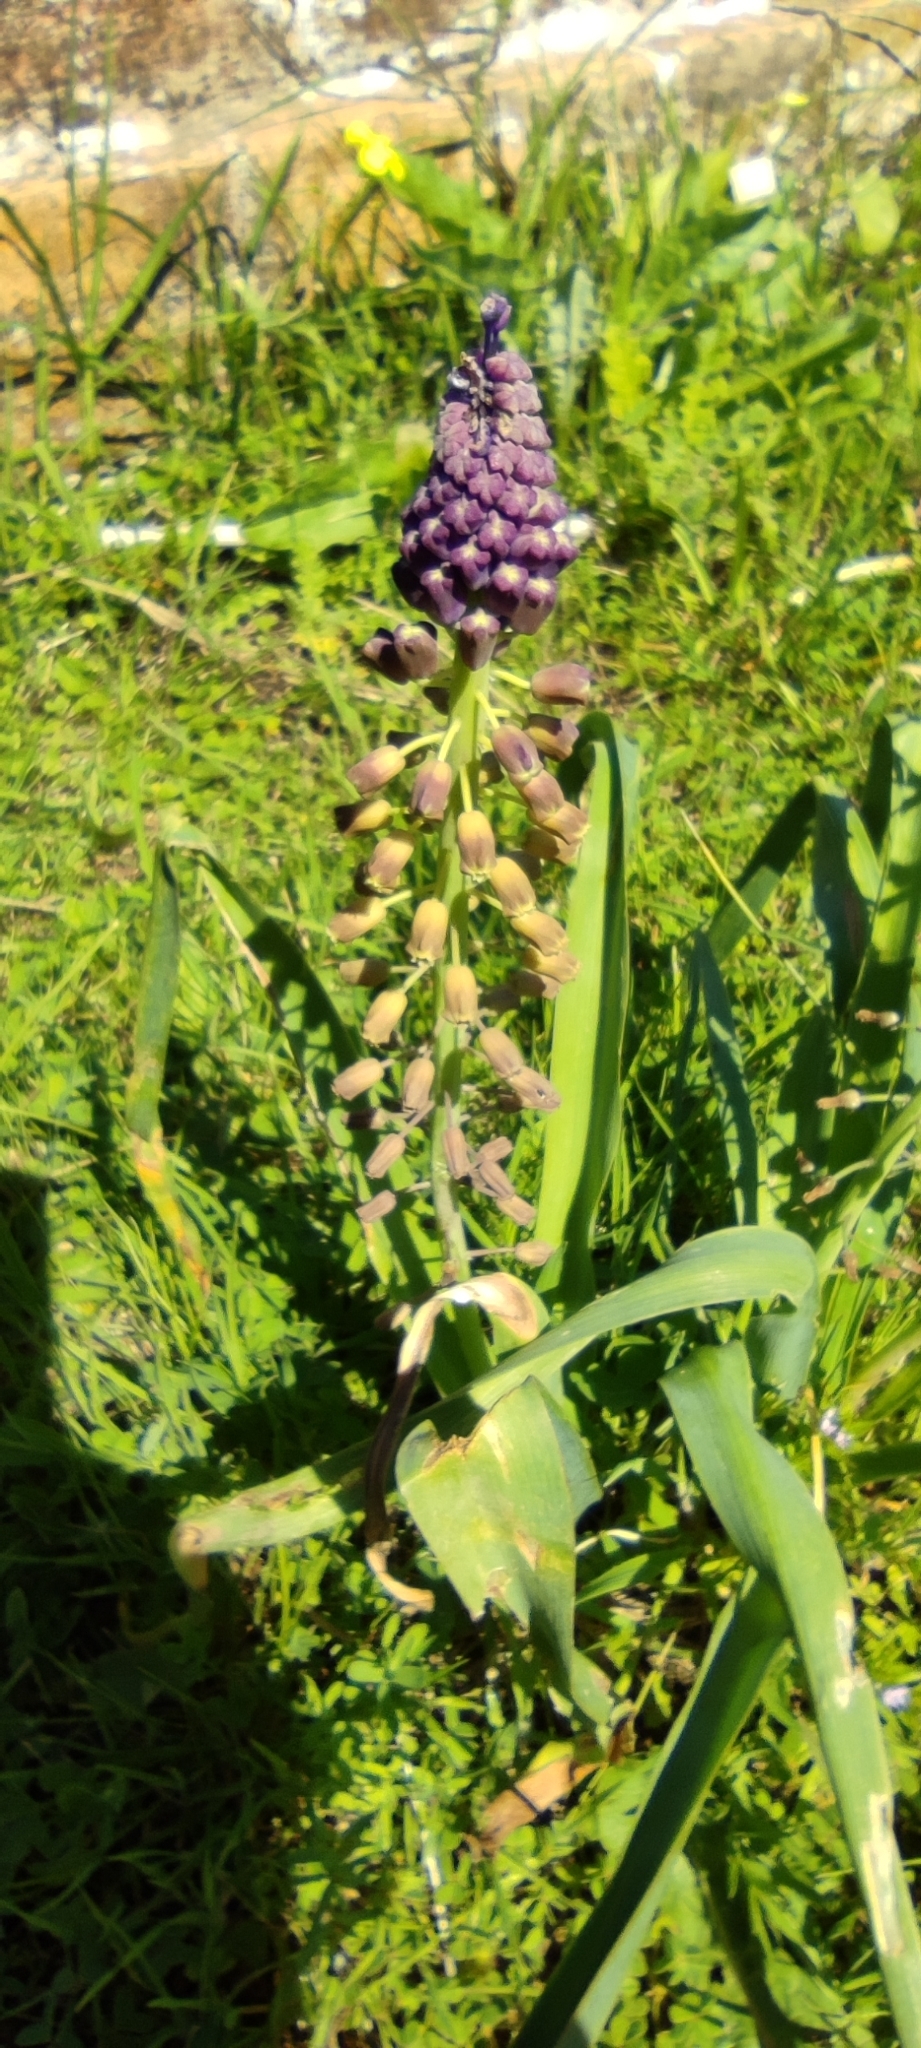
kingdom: Plantae
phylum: Tracheophyta
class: Liliopsida
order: Asparagales
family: Asparagaceae
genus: Muscari
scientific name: Muscari comosum
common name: Tassel hyacinth
